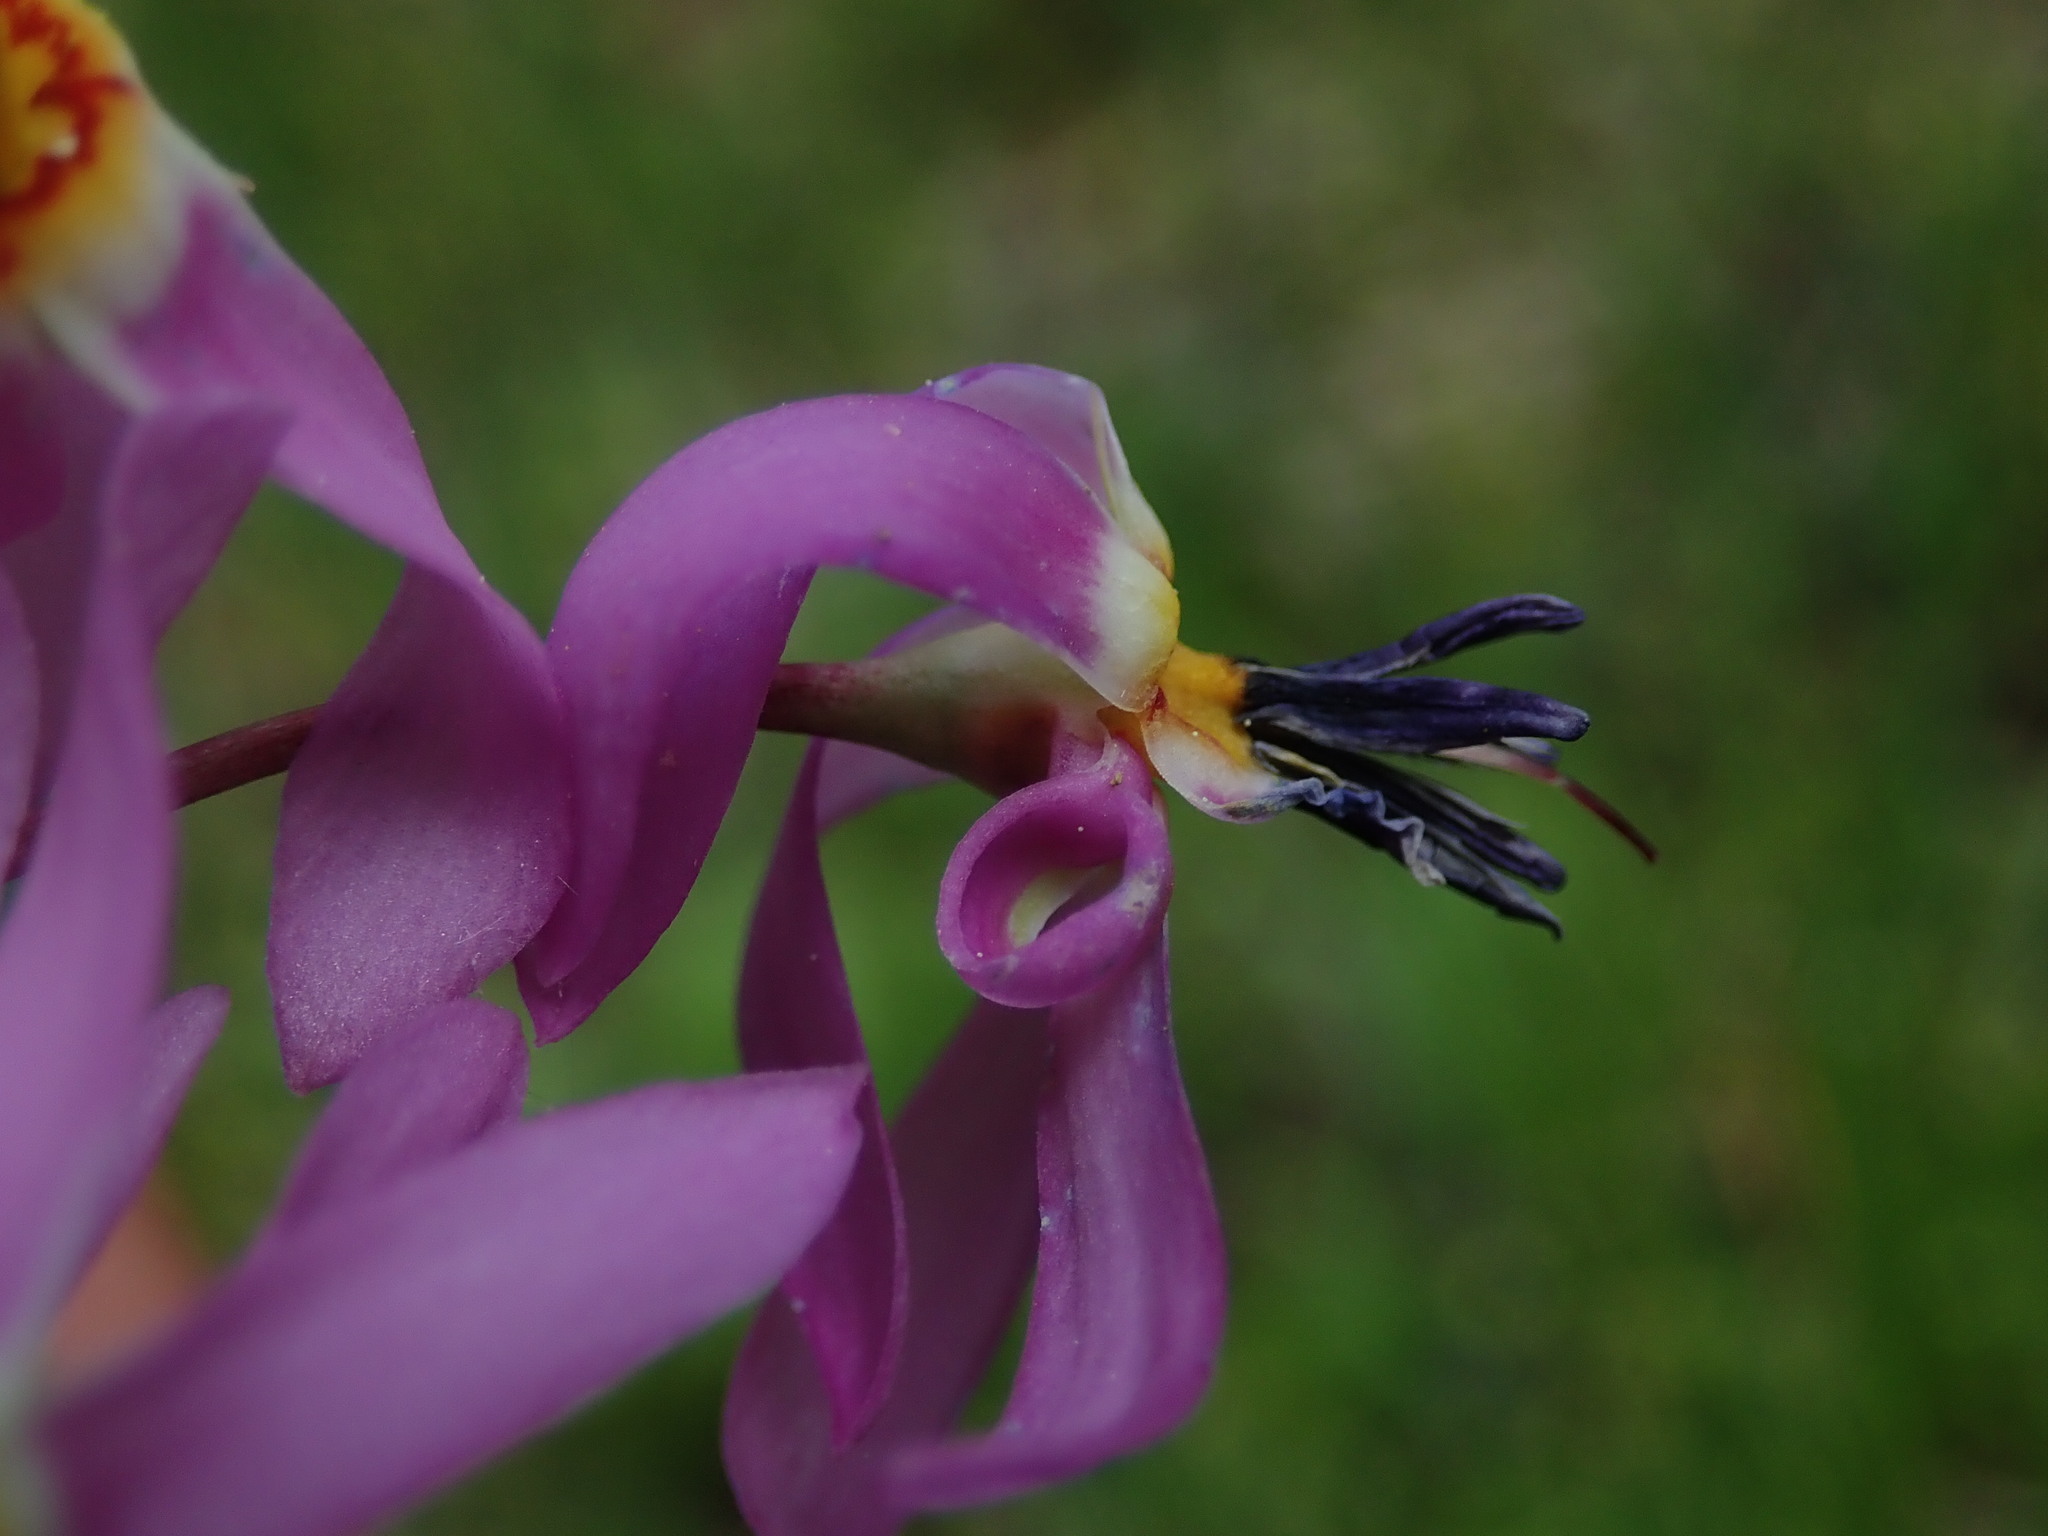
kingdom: Plantae
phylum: Tracheophyta
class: Magnoliopsida
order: Ericales
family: Primulaceae
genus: Dodecatheon
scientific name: Dodecatheon pulchellum
